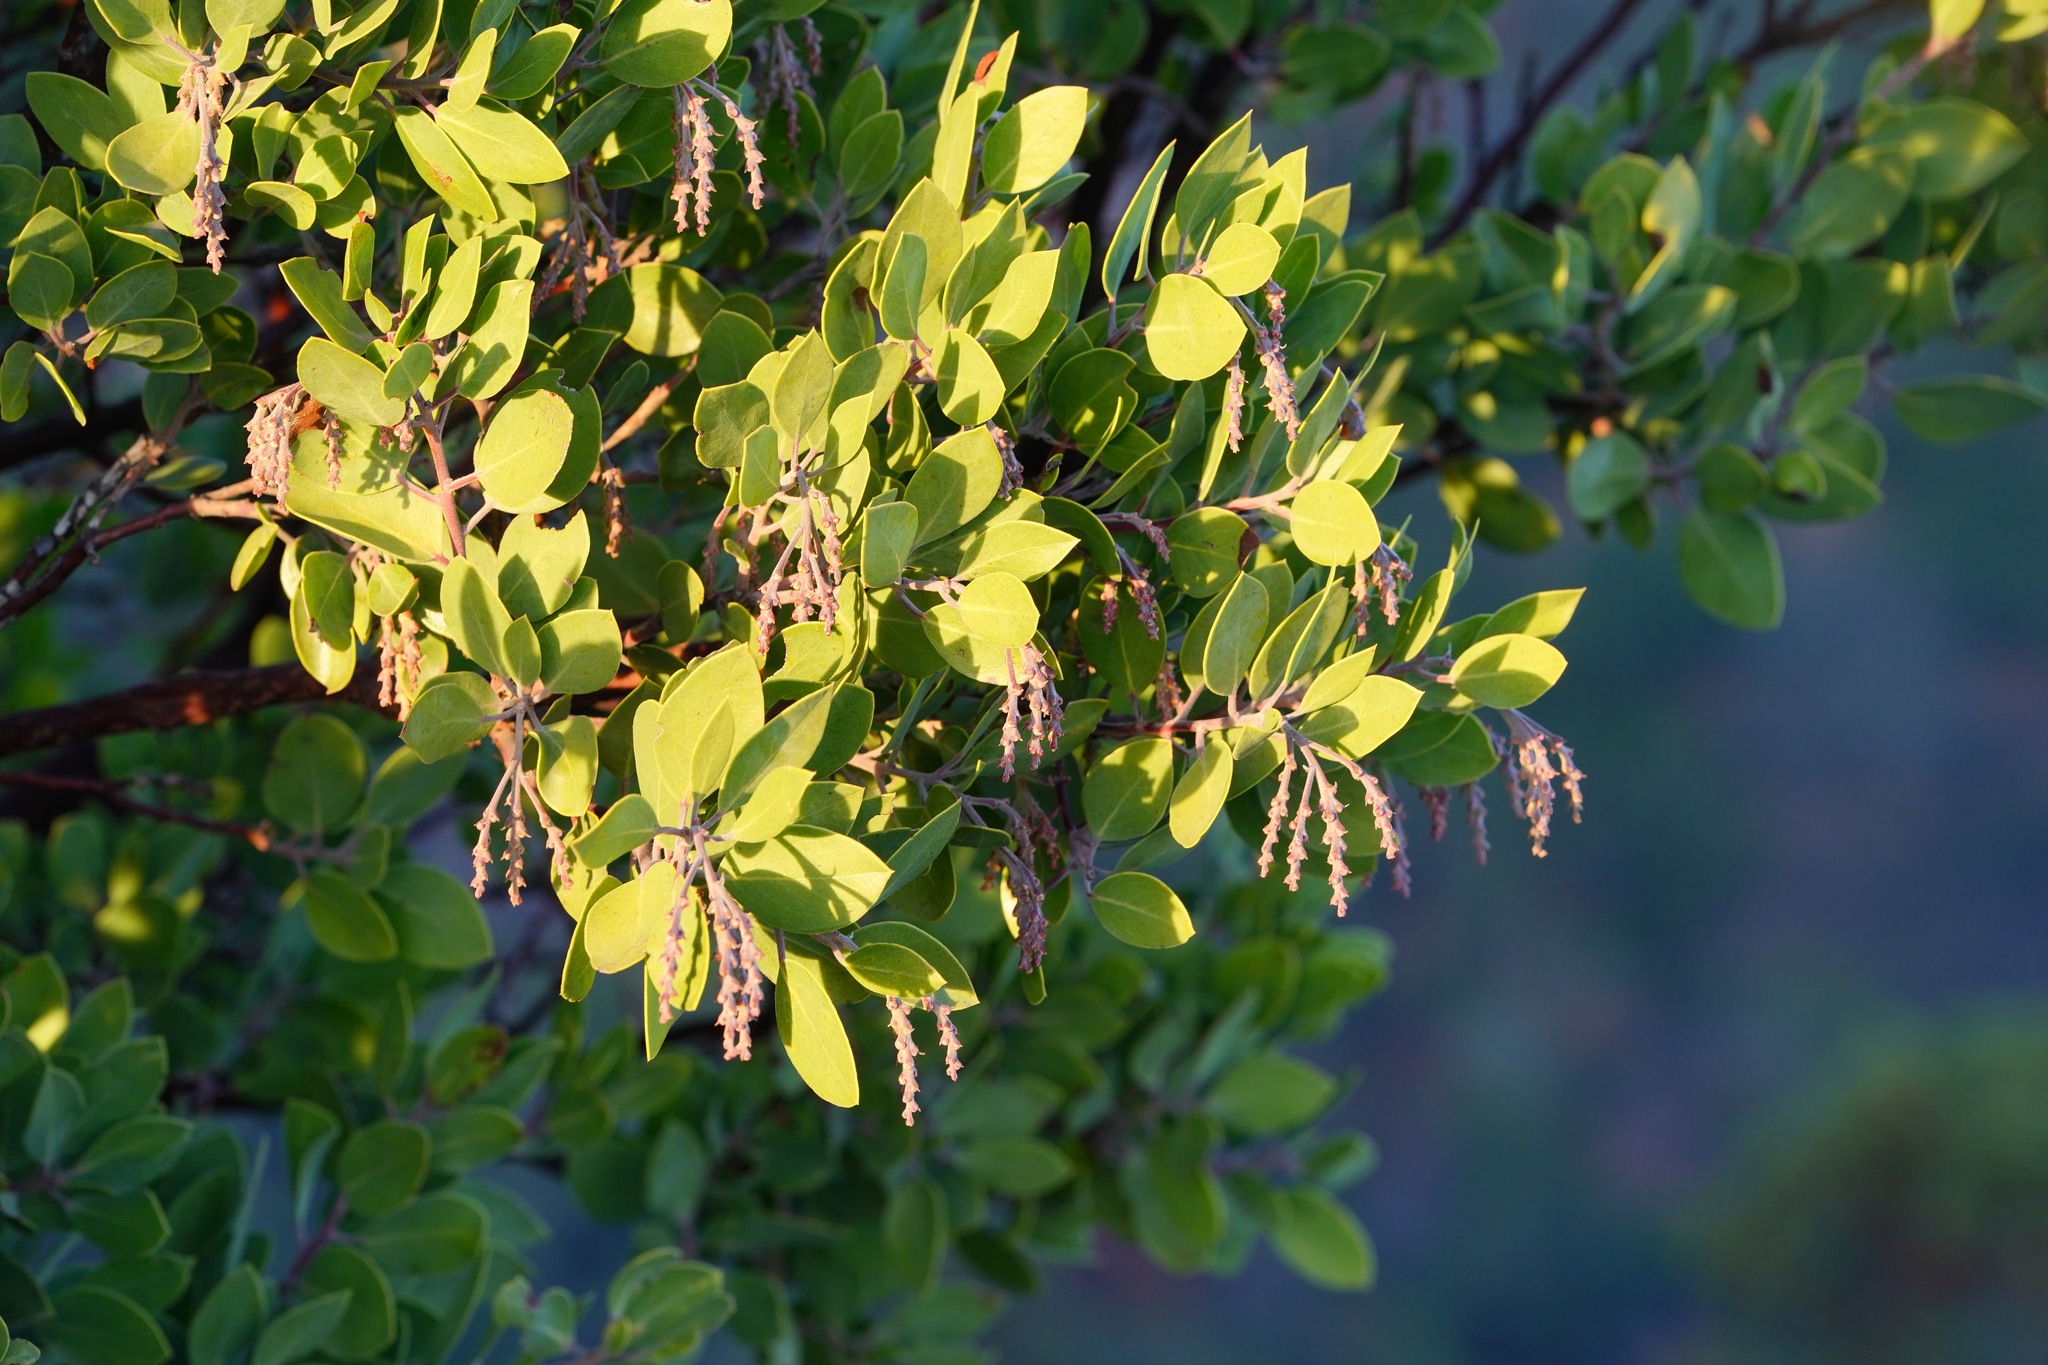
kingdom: Plantae
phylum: Tracheophyta
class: Magnoliopsida
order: Ericales
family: Ericaceae
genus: Arctostaphylos
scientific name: Arctostaphylos manzanita
